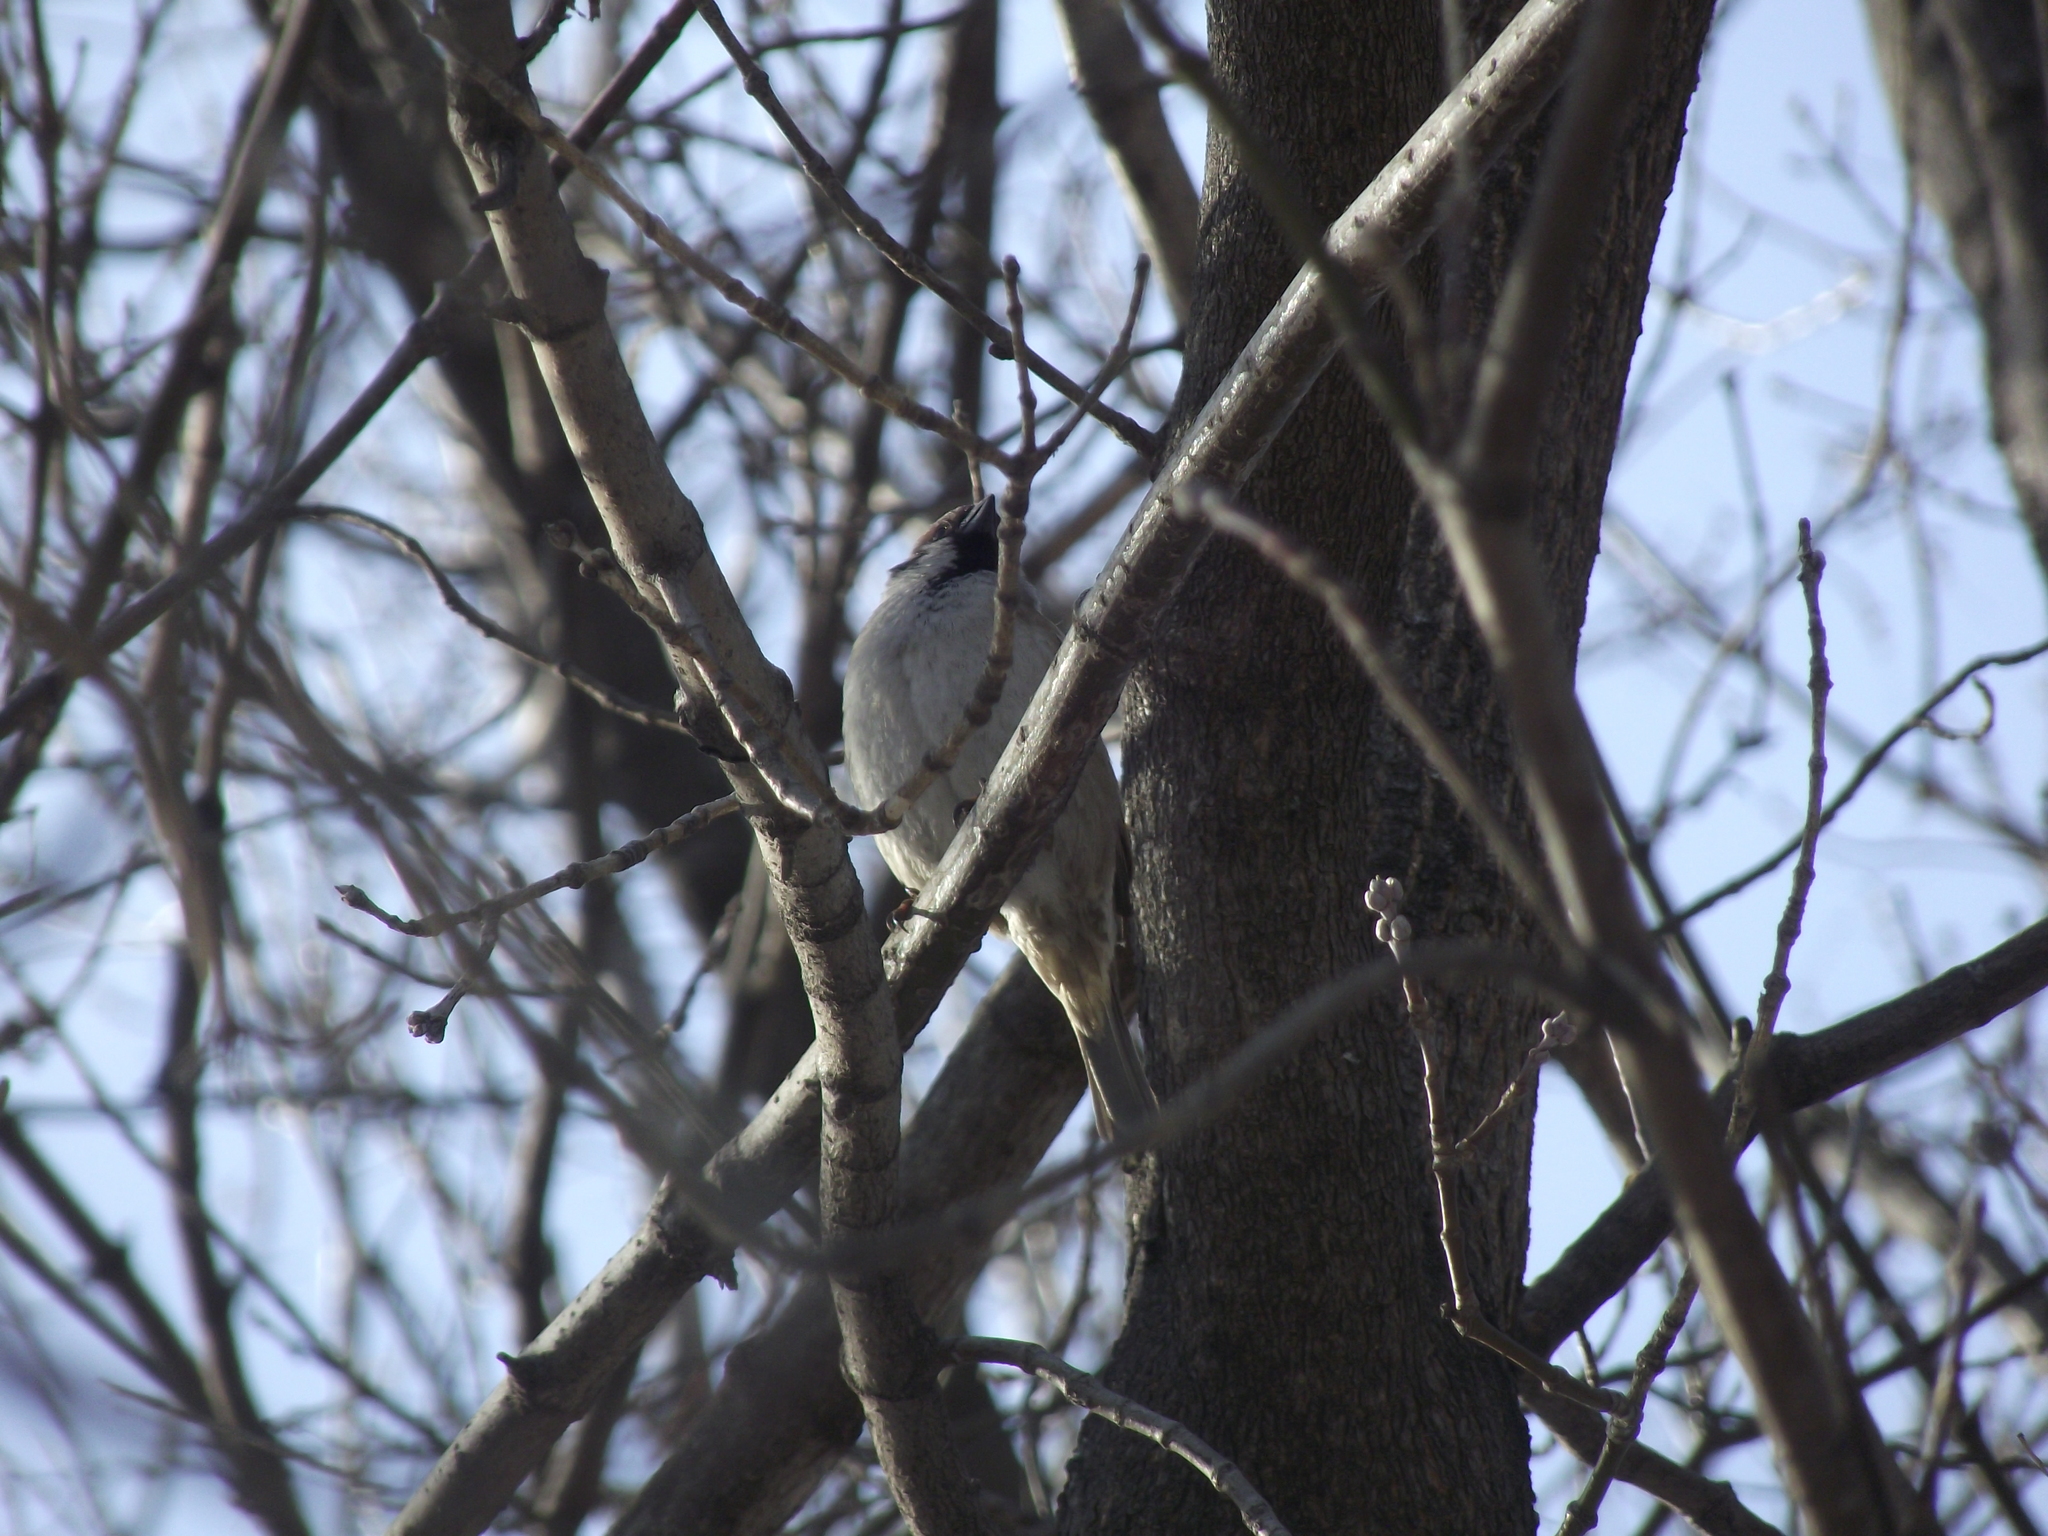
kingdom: Animalia
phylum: Chordata
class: Aves
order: Passeriformes
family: Passeridae
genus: Passer
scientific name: Passer montanus
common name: Eurasian tree sparrow
